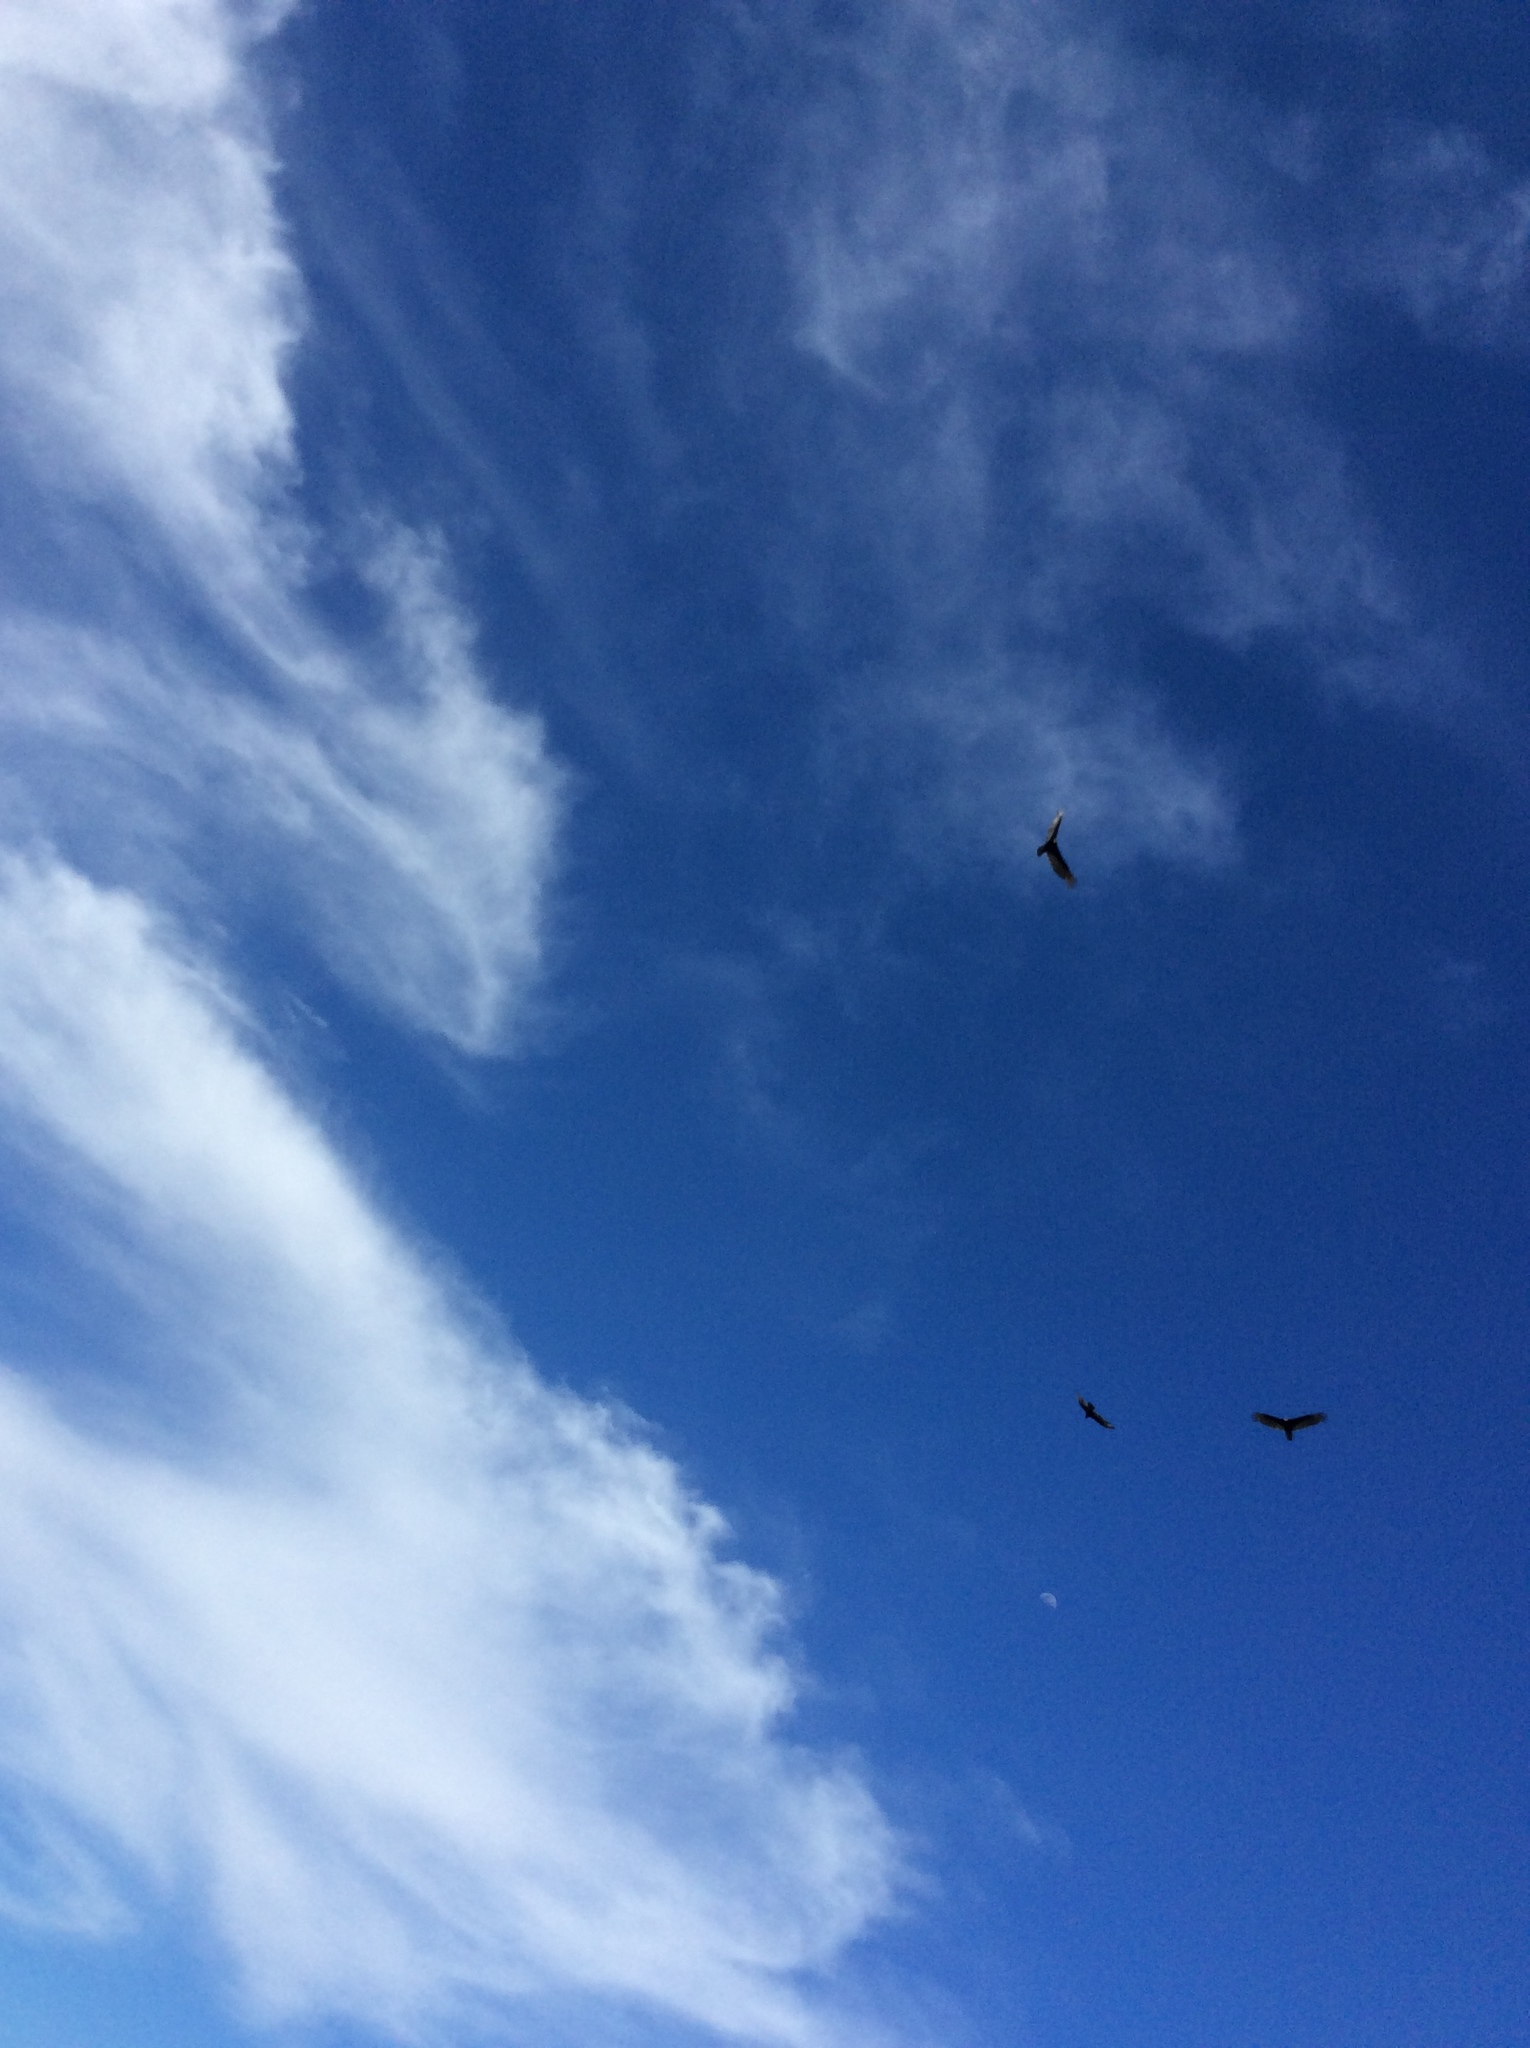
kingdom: Animalia
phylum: Chordata
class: Aves
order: Accipitriformes
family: Cathartidae
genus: Cathartes
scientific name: Cathartes aura
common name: Turkey vulture
